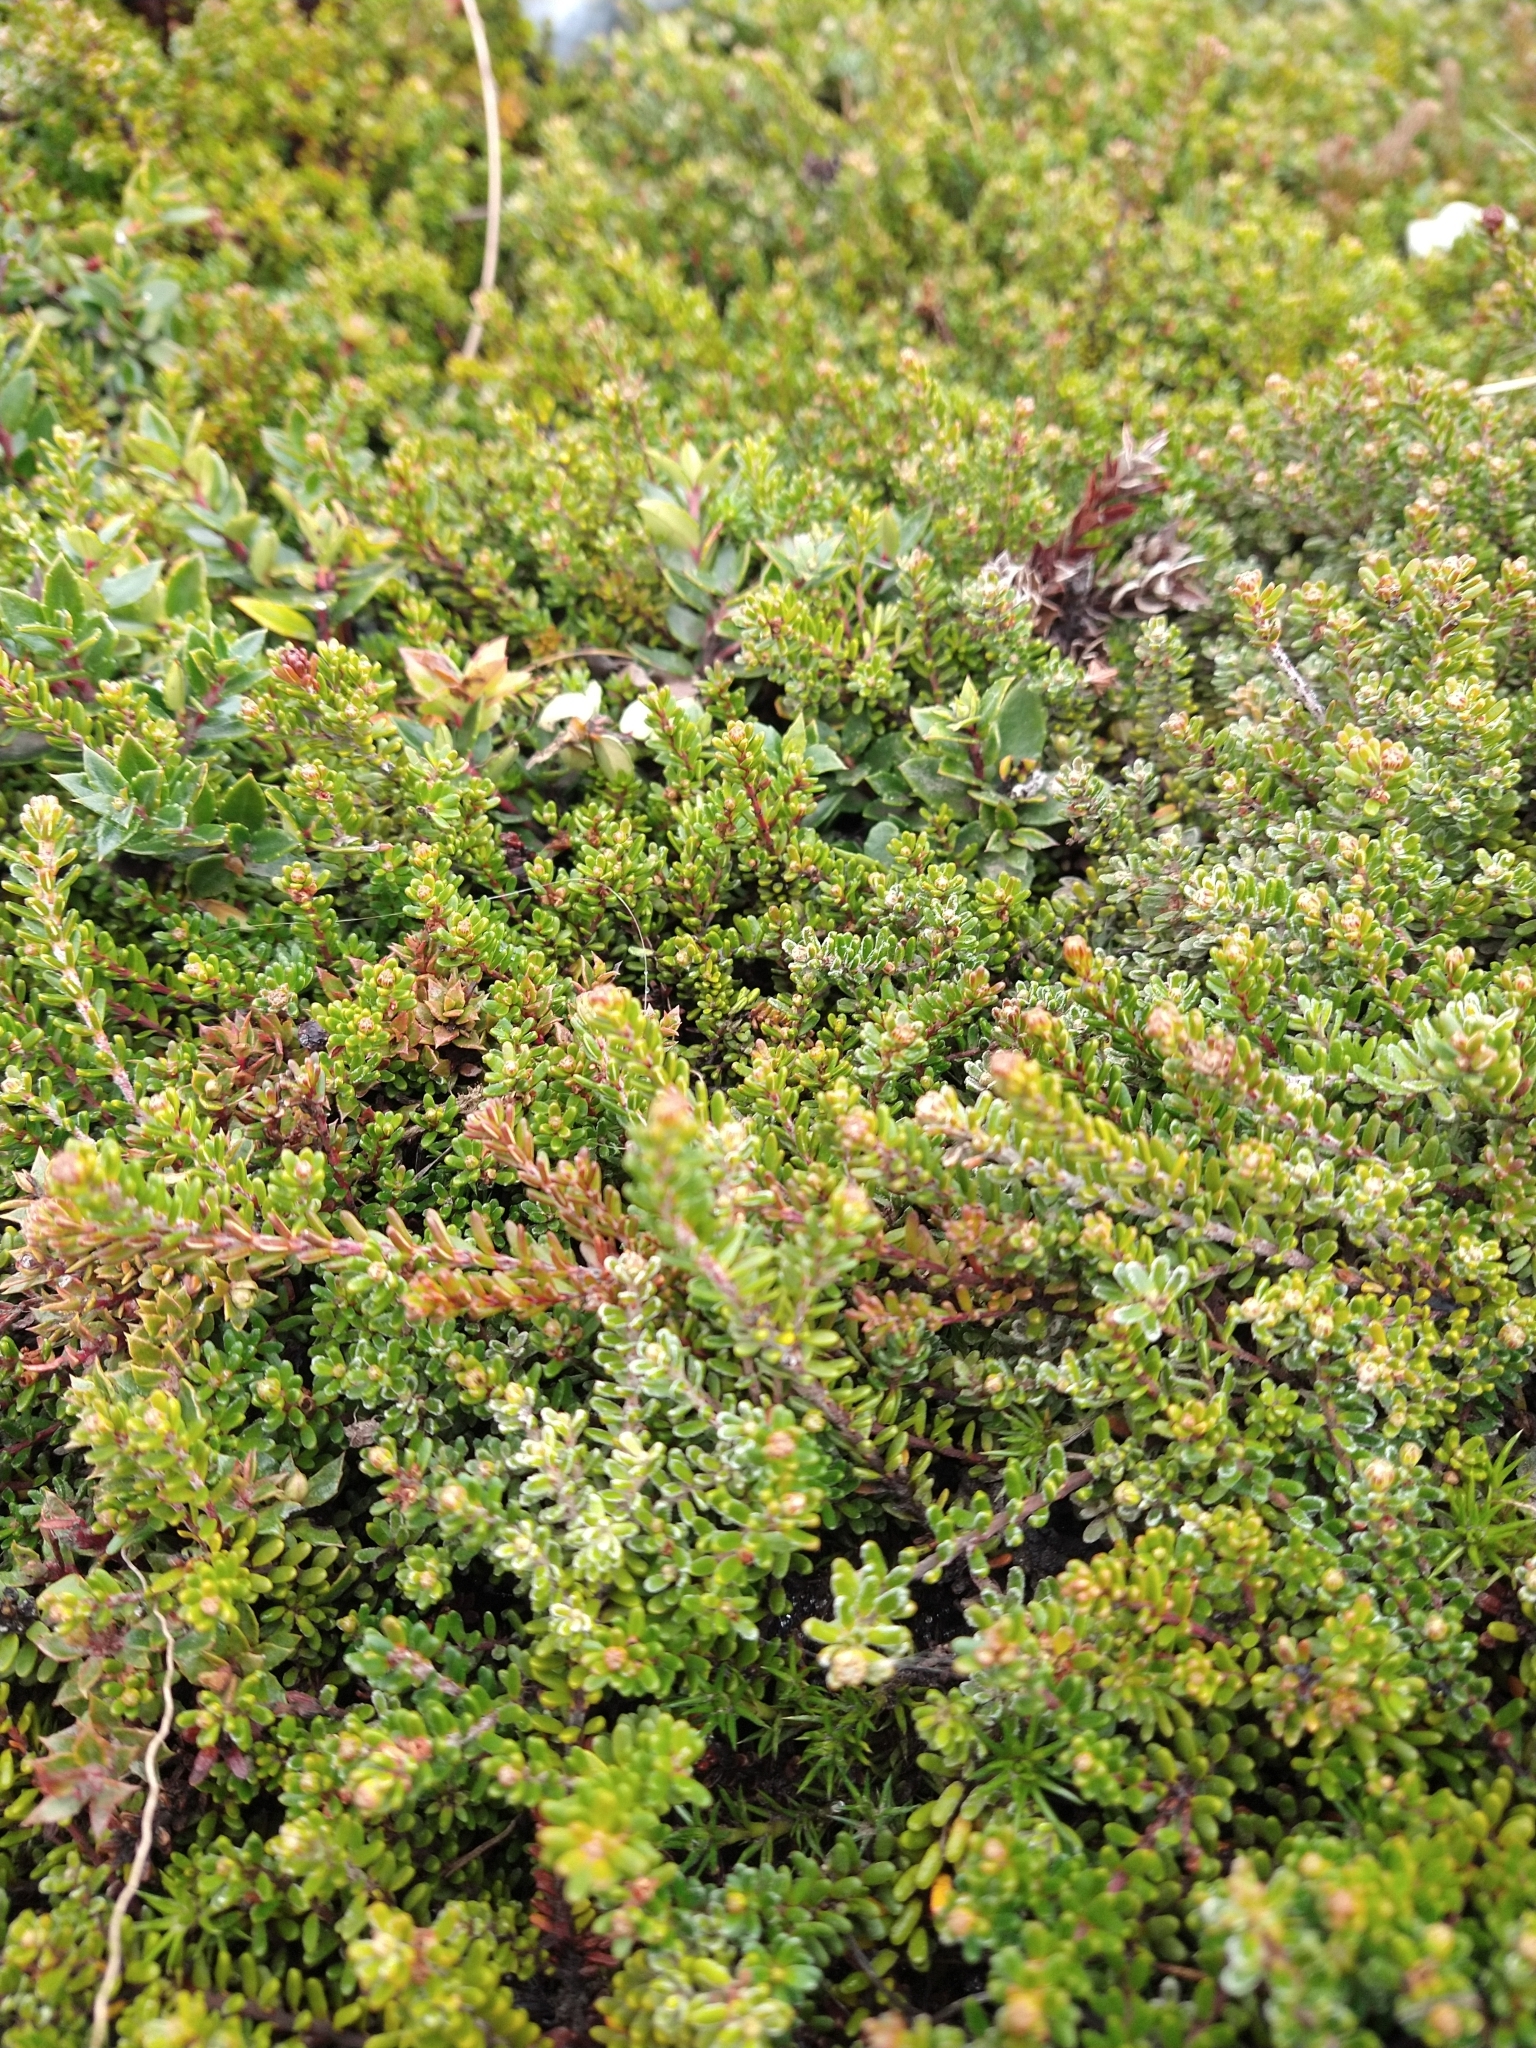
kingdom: Plantae
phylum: Tracheophyta
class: Magnoliopsida
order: Ericales
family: Ericaceae
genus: Empetrum
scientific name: Empetrum rubrum
